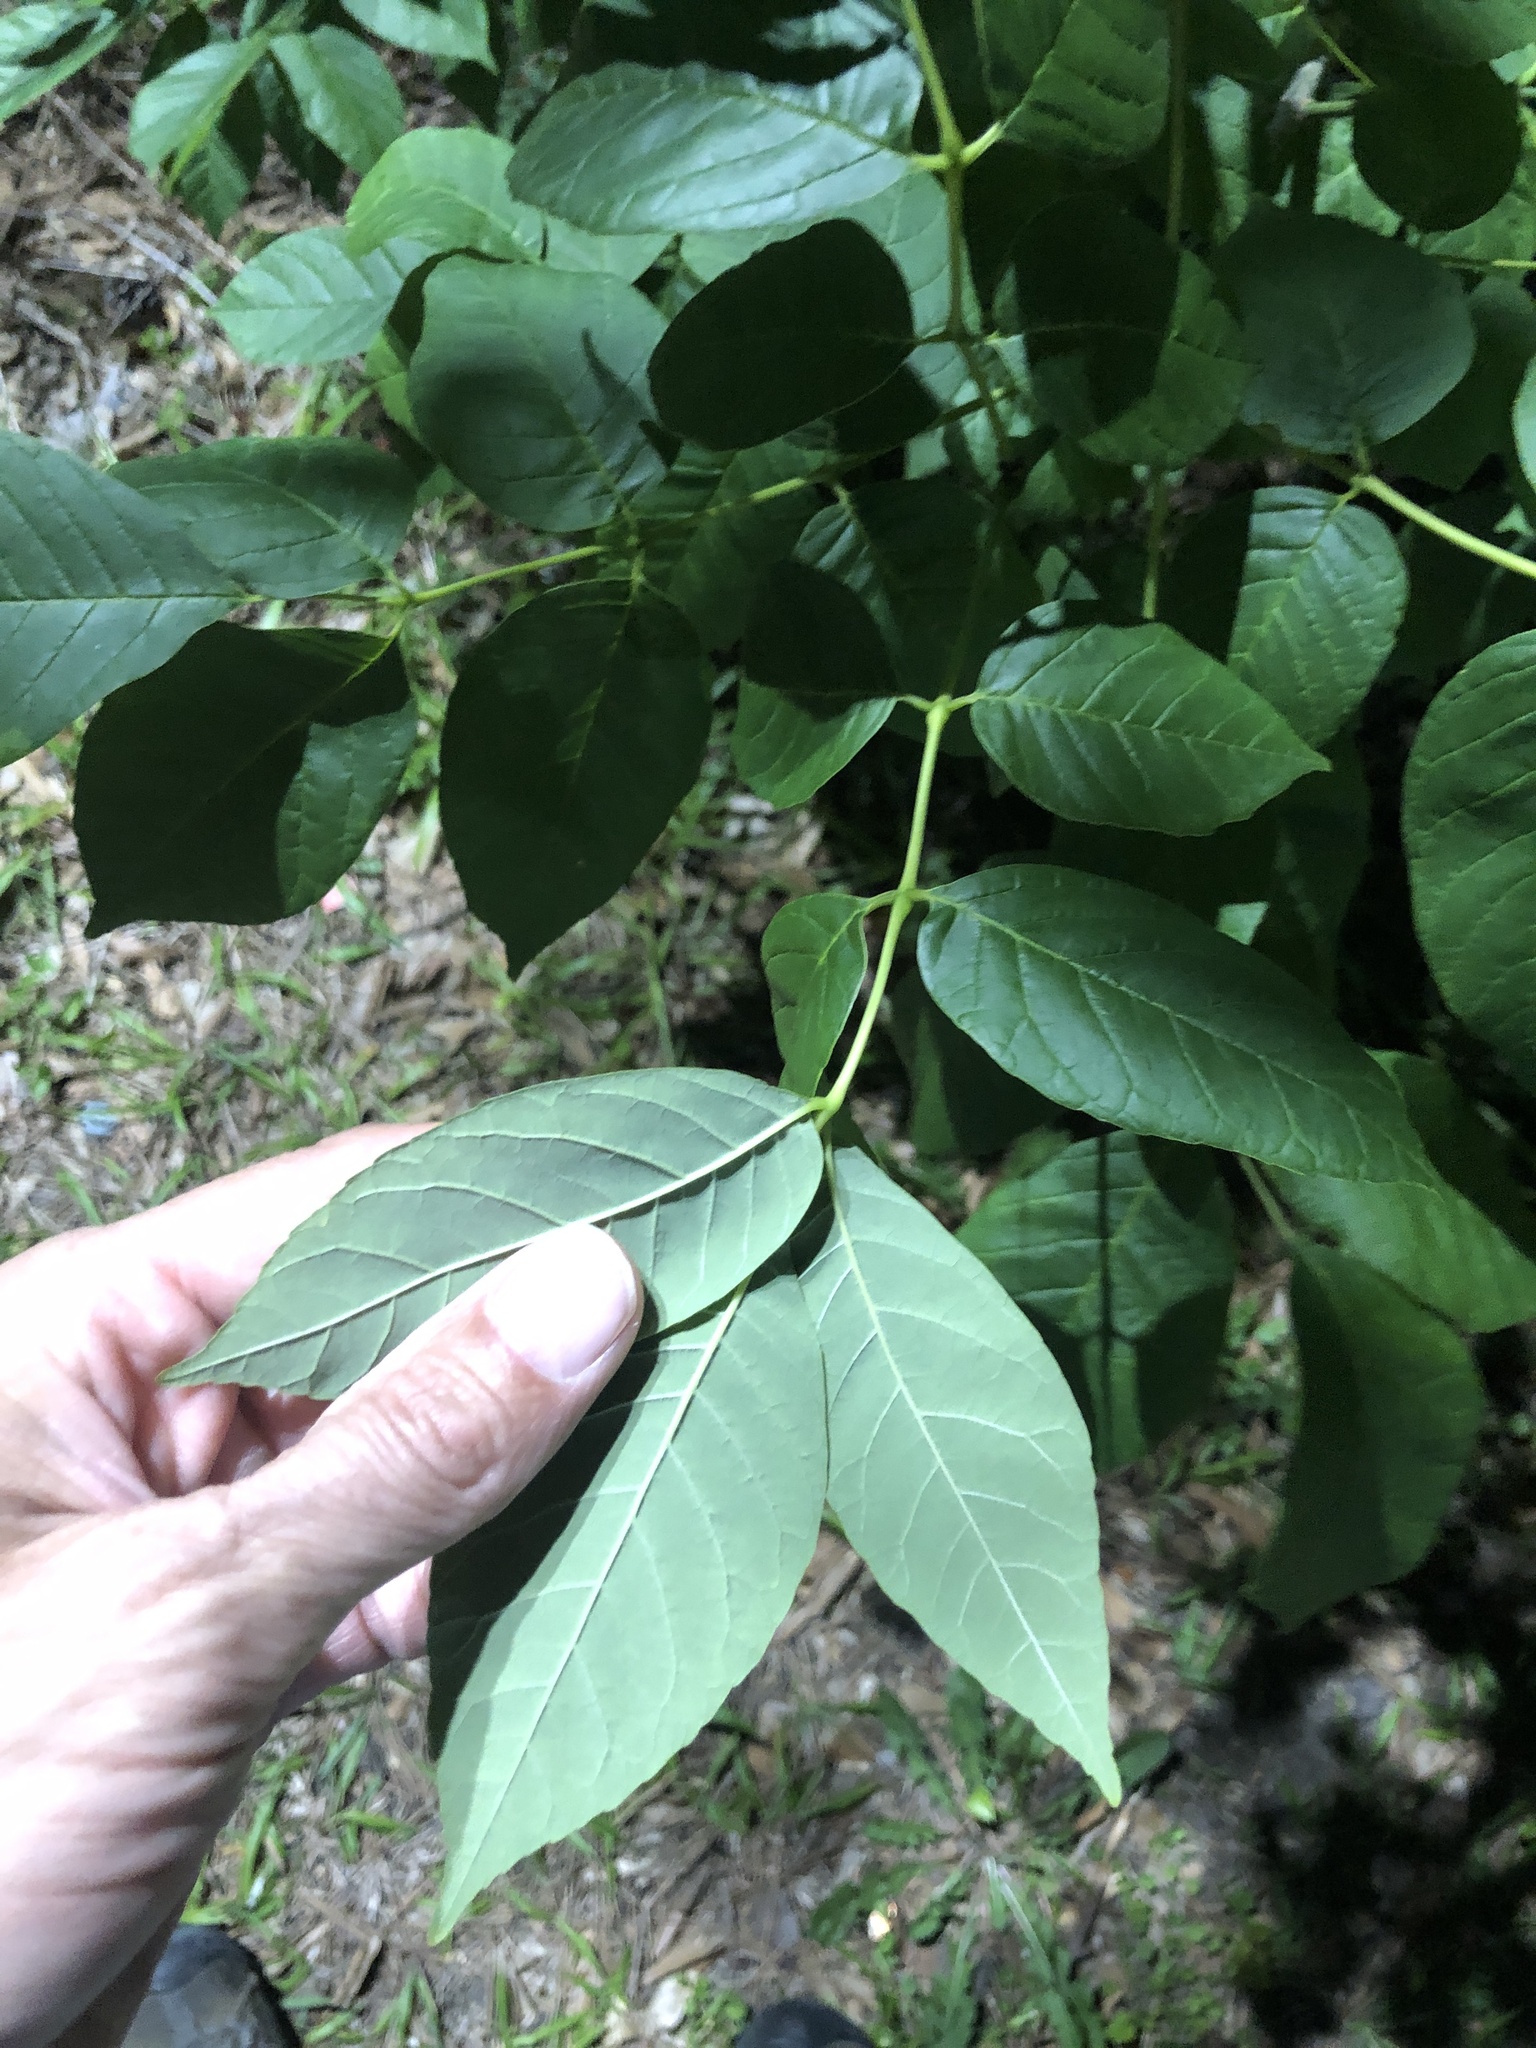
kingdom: Plantae
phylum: Tracheophyta
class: Magnoliopsida
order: Lamiales
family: Oleaceae
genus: Fraxinus
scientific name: Fraxinus pennsylvanica
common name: Green ash
